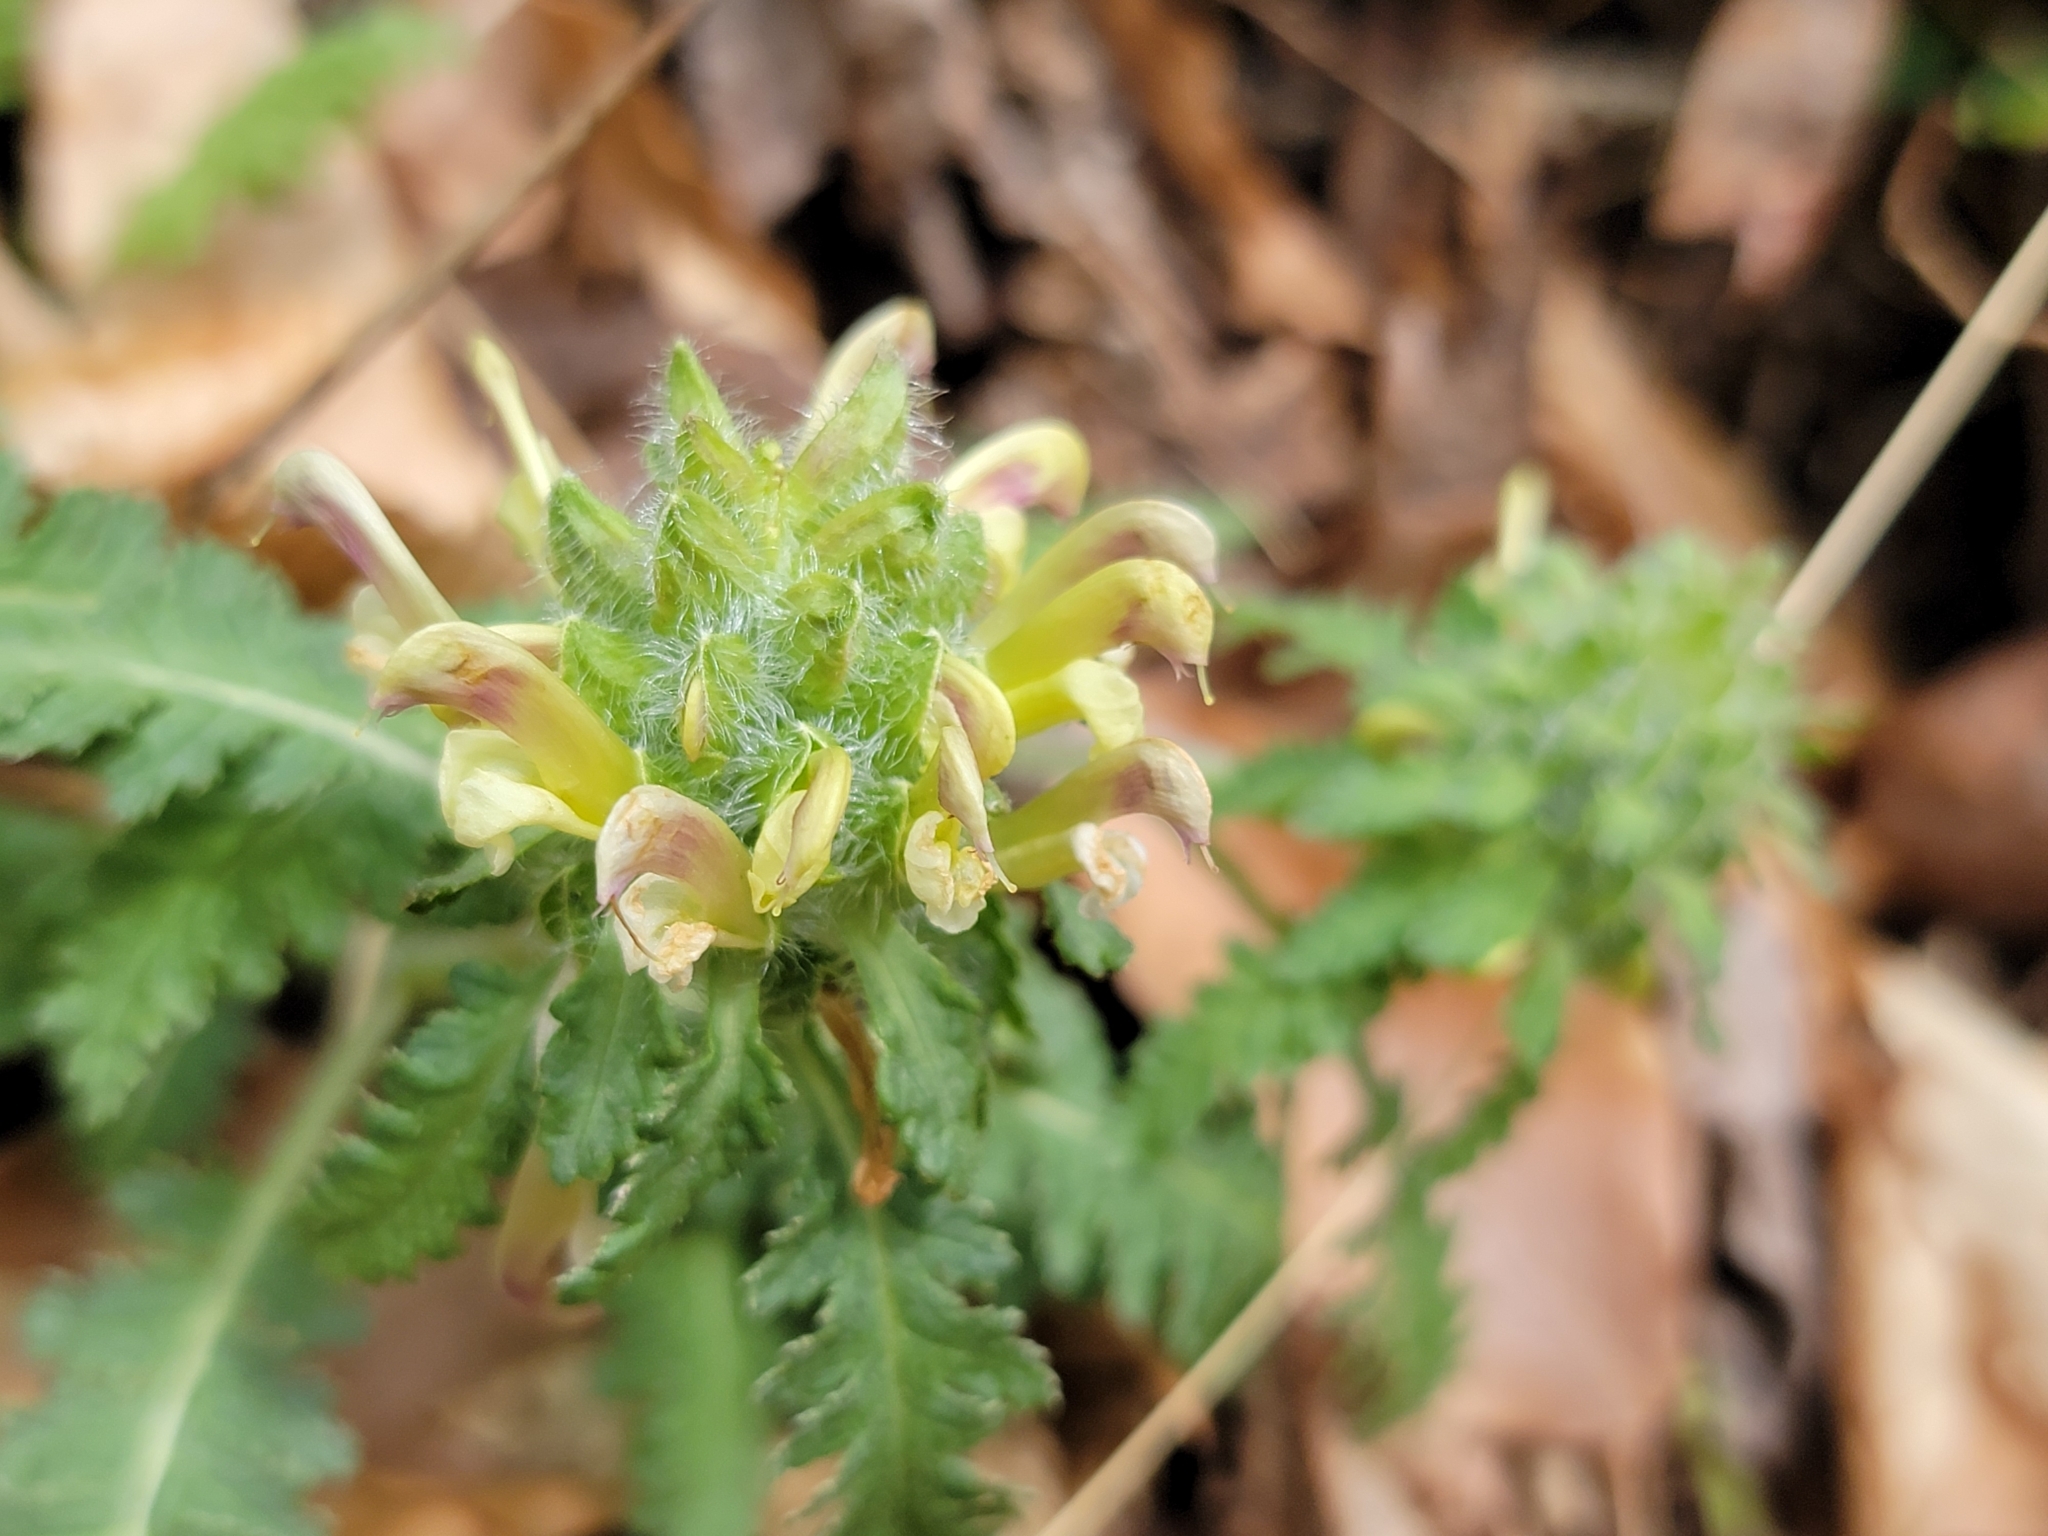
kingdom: Plantae
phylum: Tracheophyta
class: Magnoliopsida
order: Lamiales
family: Orobanchaceae
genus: Pedicularis
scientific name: Pedicularis canadensis
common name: Early lousewort
